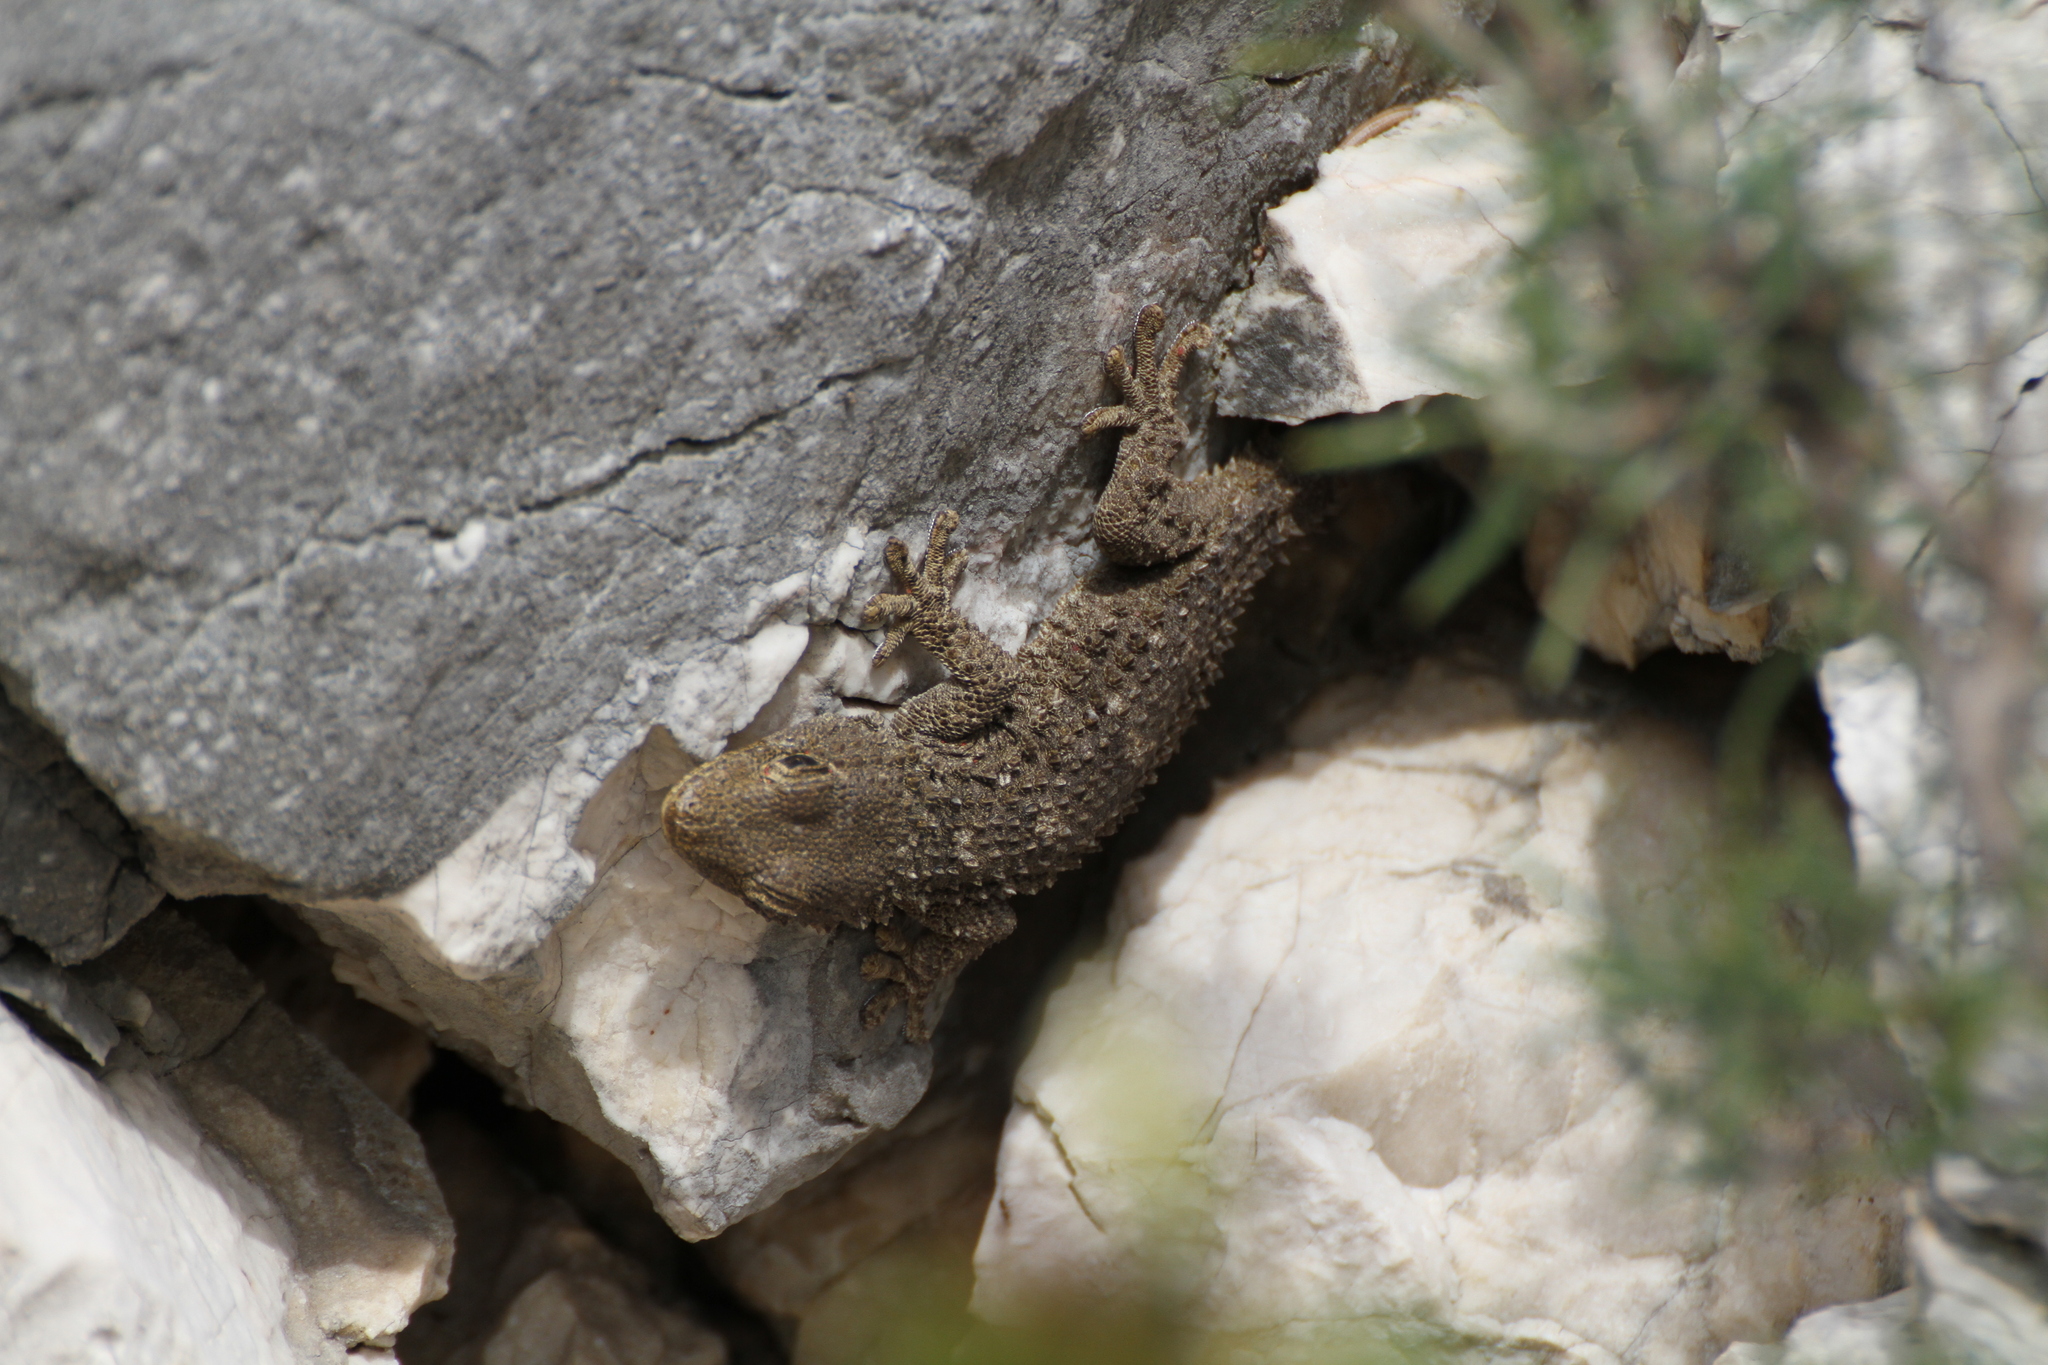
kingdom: Animalia
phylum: Chordata
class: Squamata
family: Phyllodactylidae
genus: Tarentola
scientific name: Tarentola mauritanica
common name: Moorish gecko
